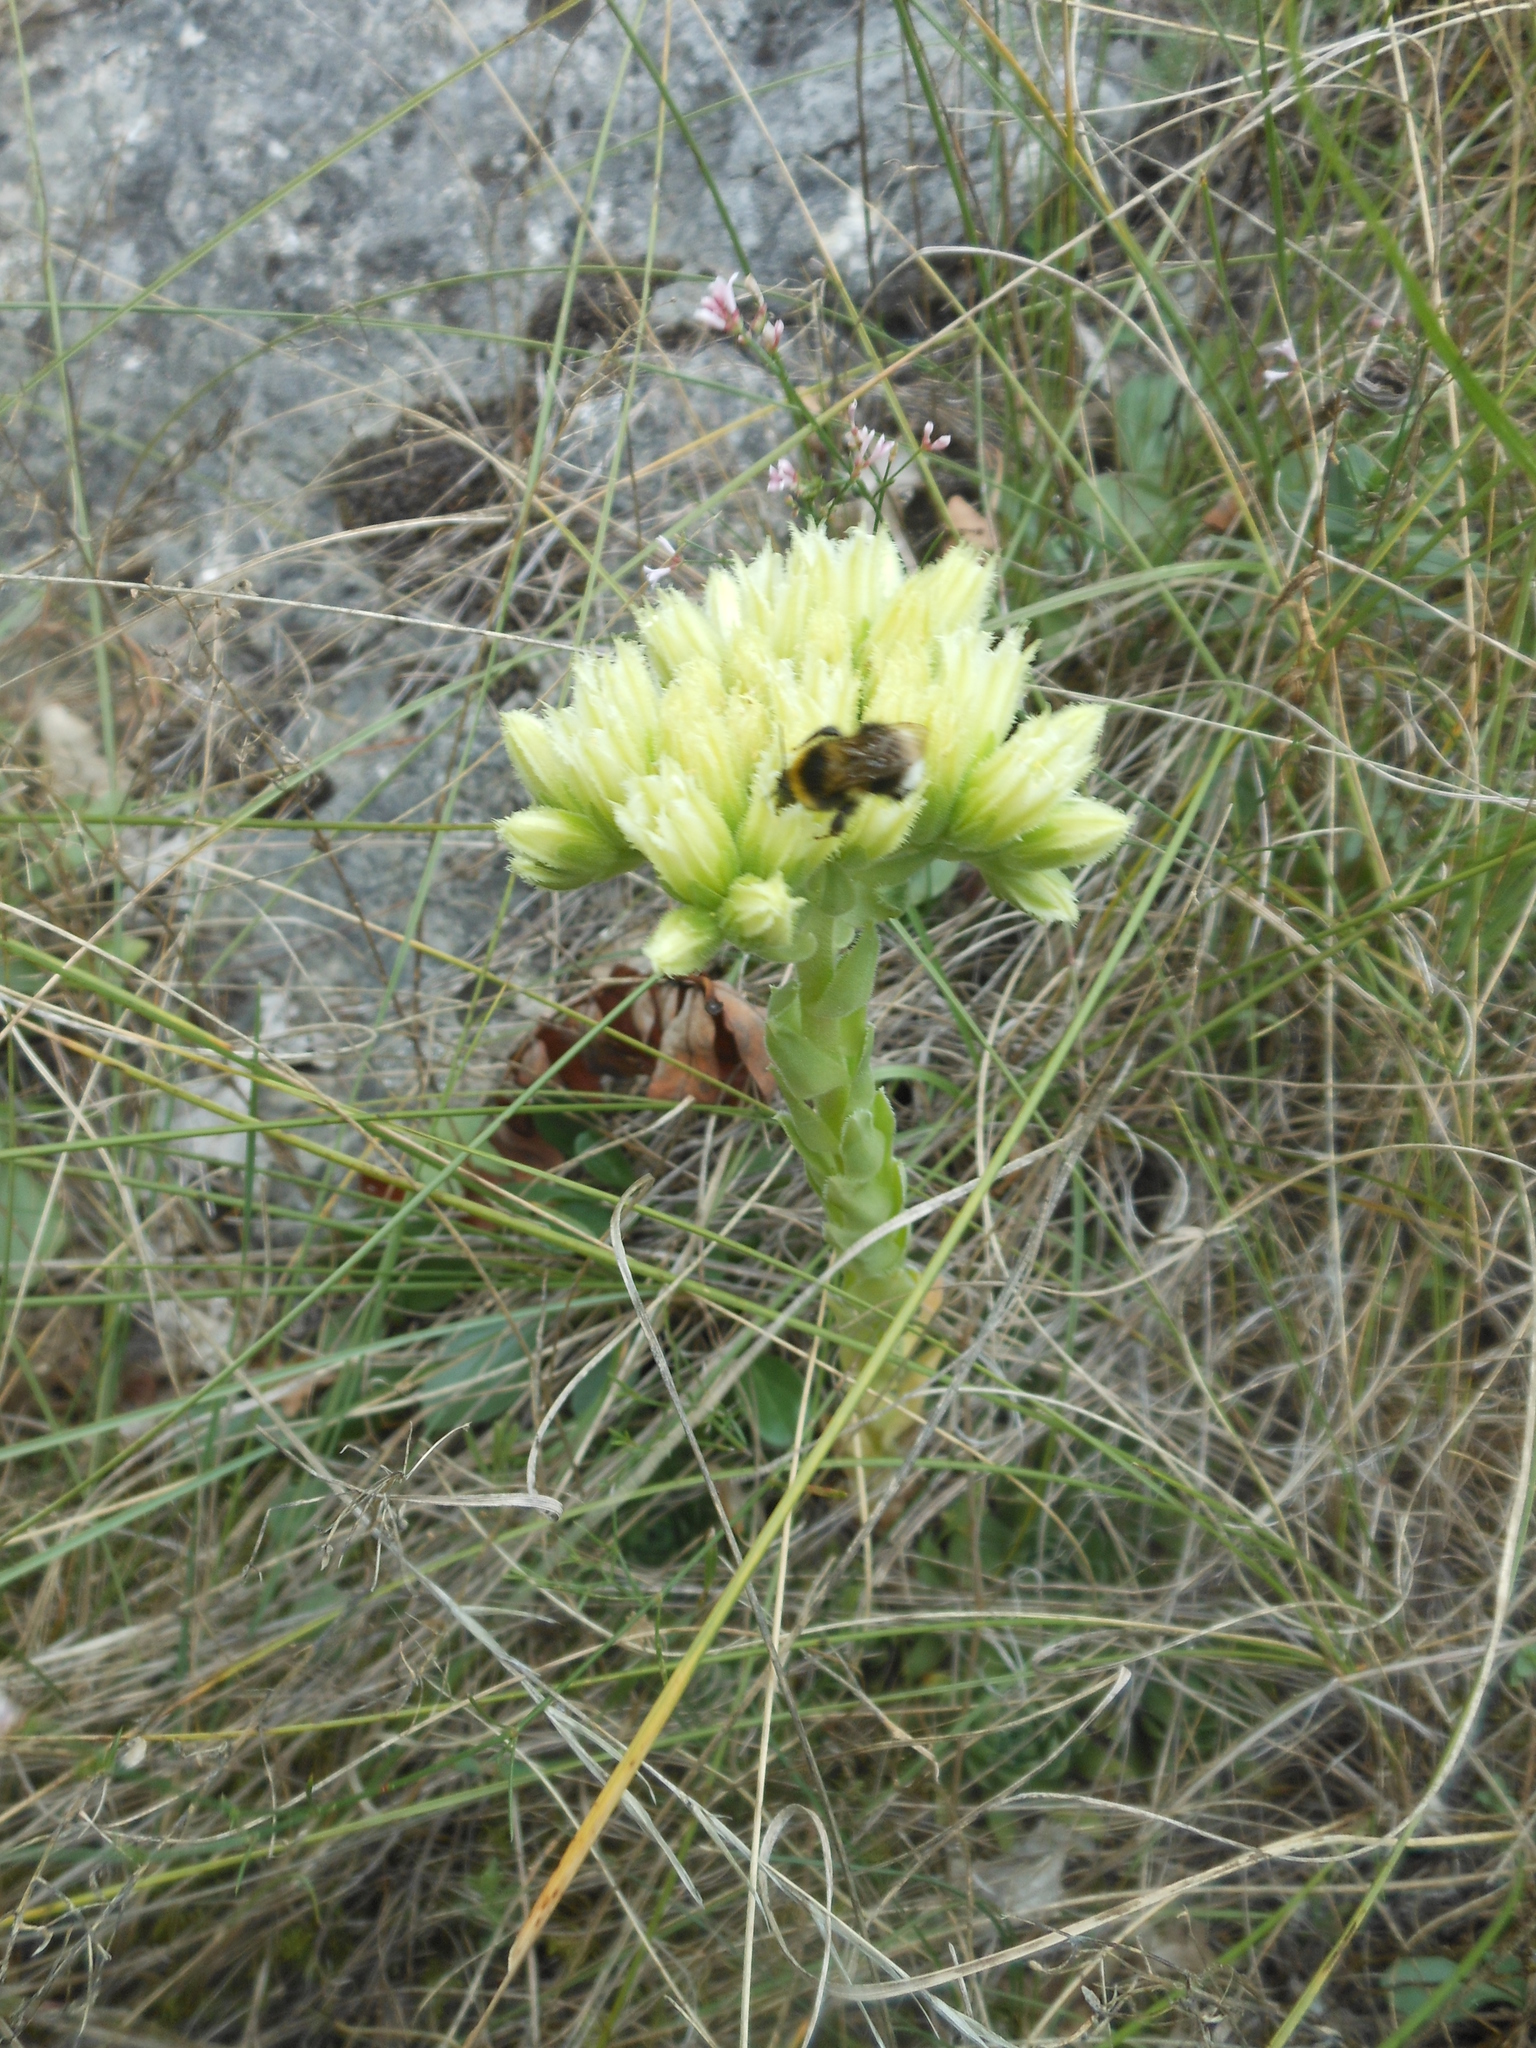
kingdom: Plantae
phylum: Tracheophyta
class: Magnoliopsida
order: Saxifragales
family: Crassulaceae
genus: Sempervivum
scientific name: Sempervivum globiferum
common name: Rolling hen-and-chicks
